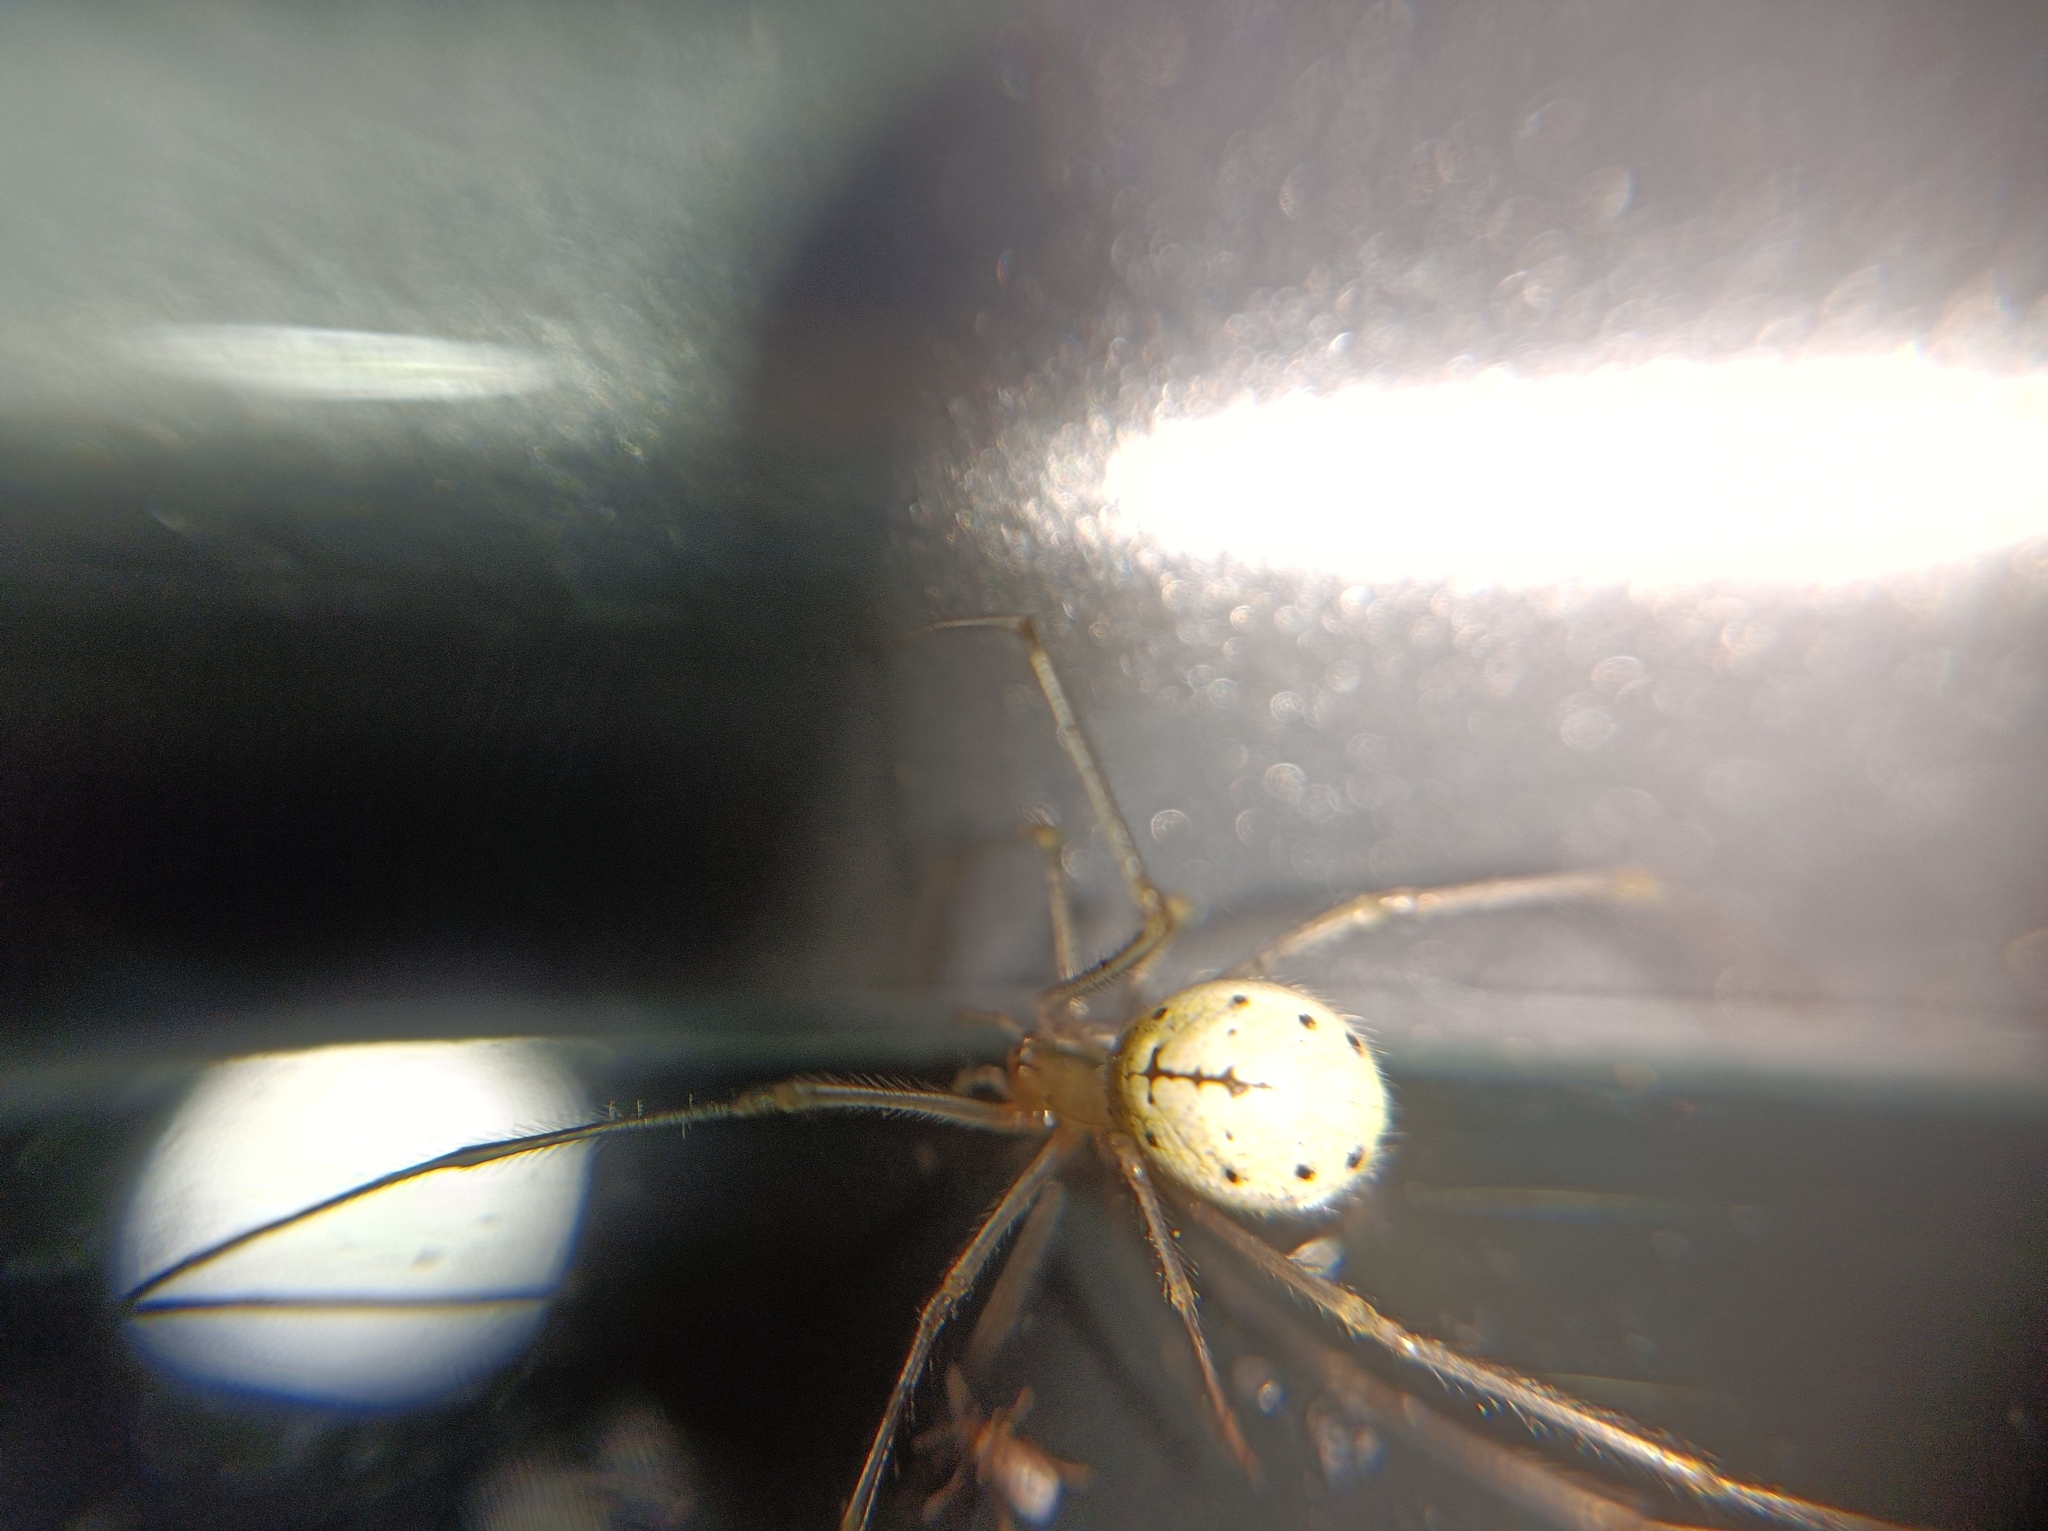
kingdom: Animalia
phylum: Arthropoda
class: Arachnida
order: Araneae
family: Theridiidae
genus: Enoplognatha
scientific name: Enoplognatha ovata
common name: Common candy-striped spider
